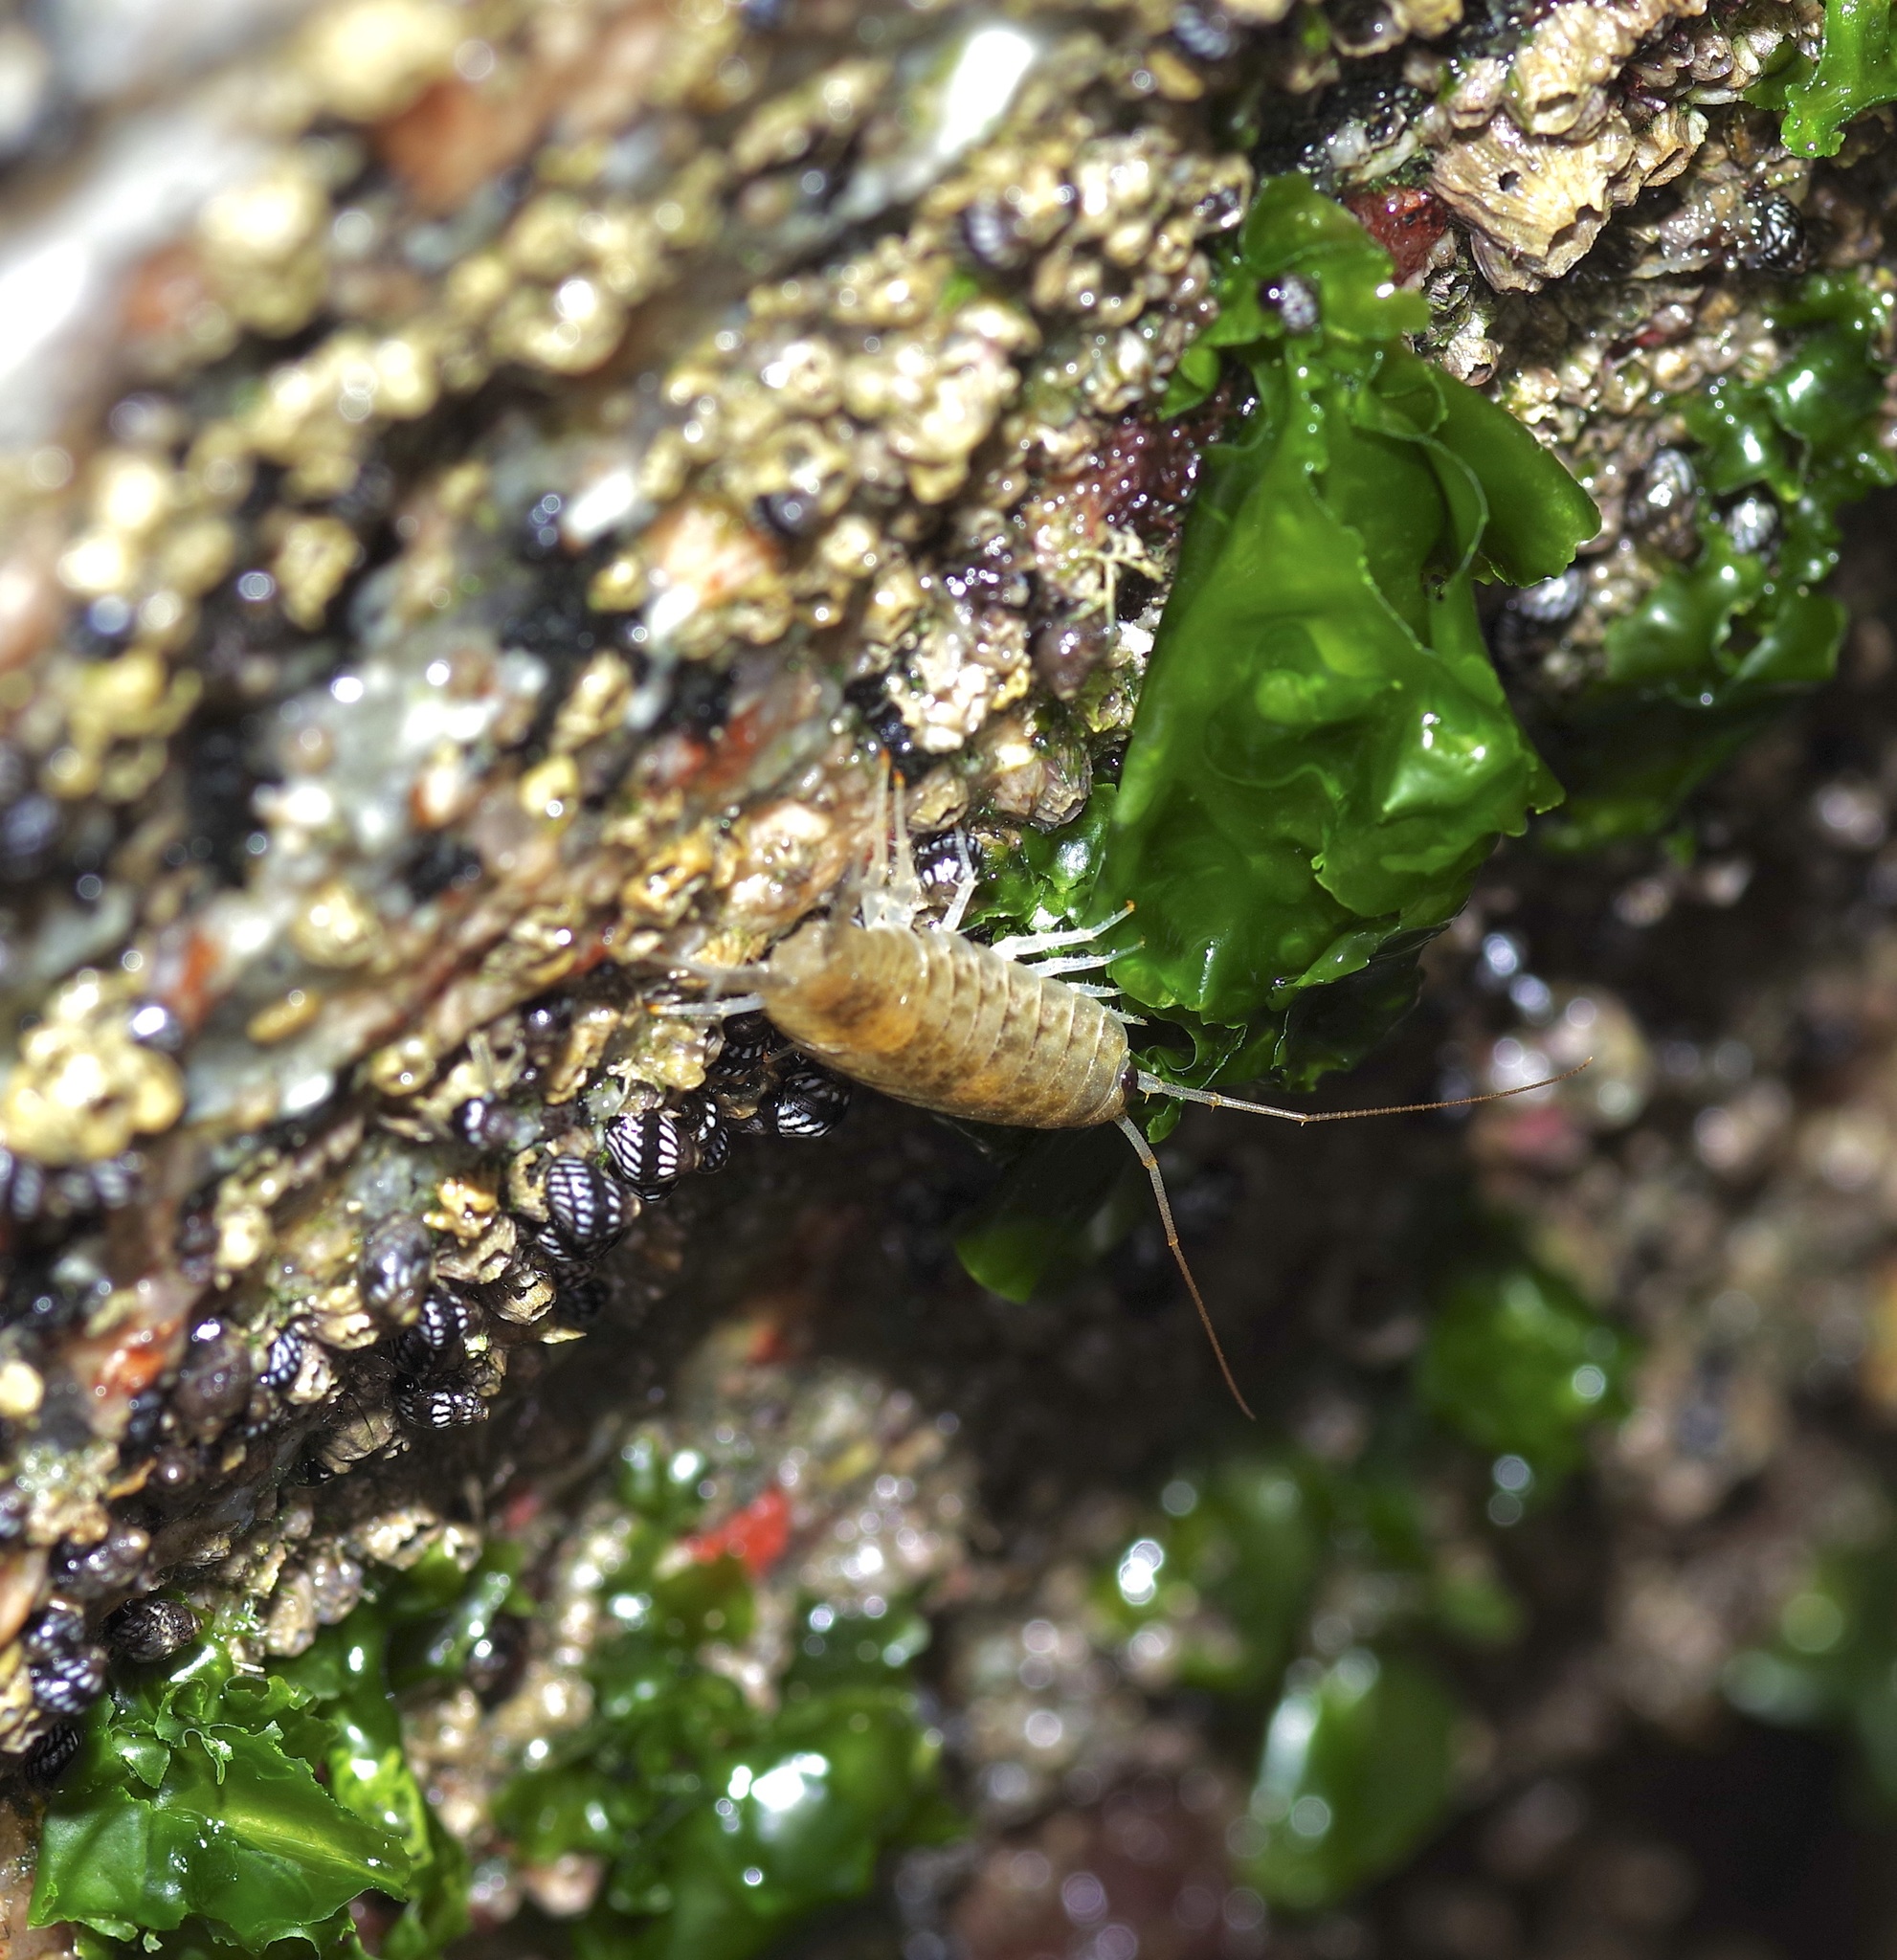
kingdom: Animalia
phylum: Arthropoda
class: Malacostraca
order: Isopoda
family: Ligiidae
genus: Ligia
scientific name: Ligia exotica
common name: Wharf roach
